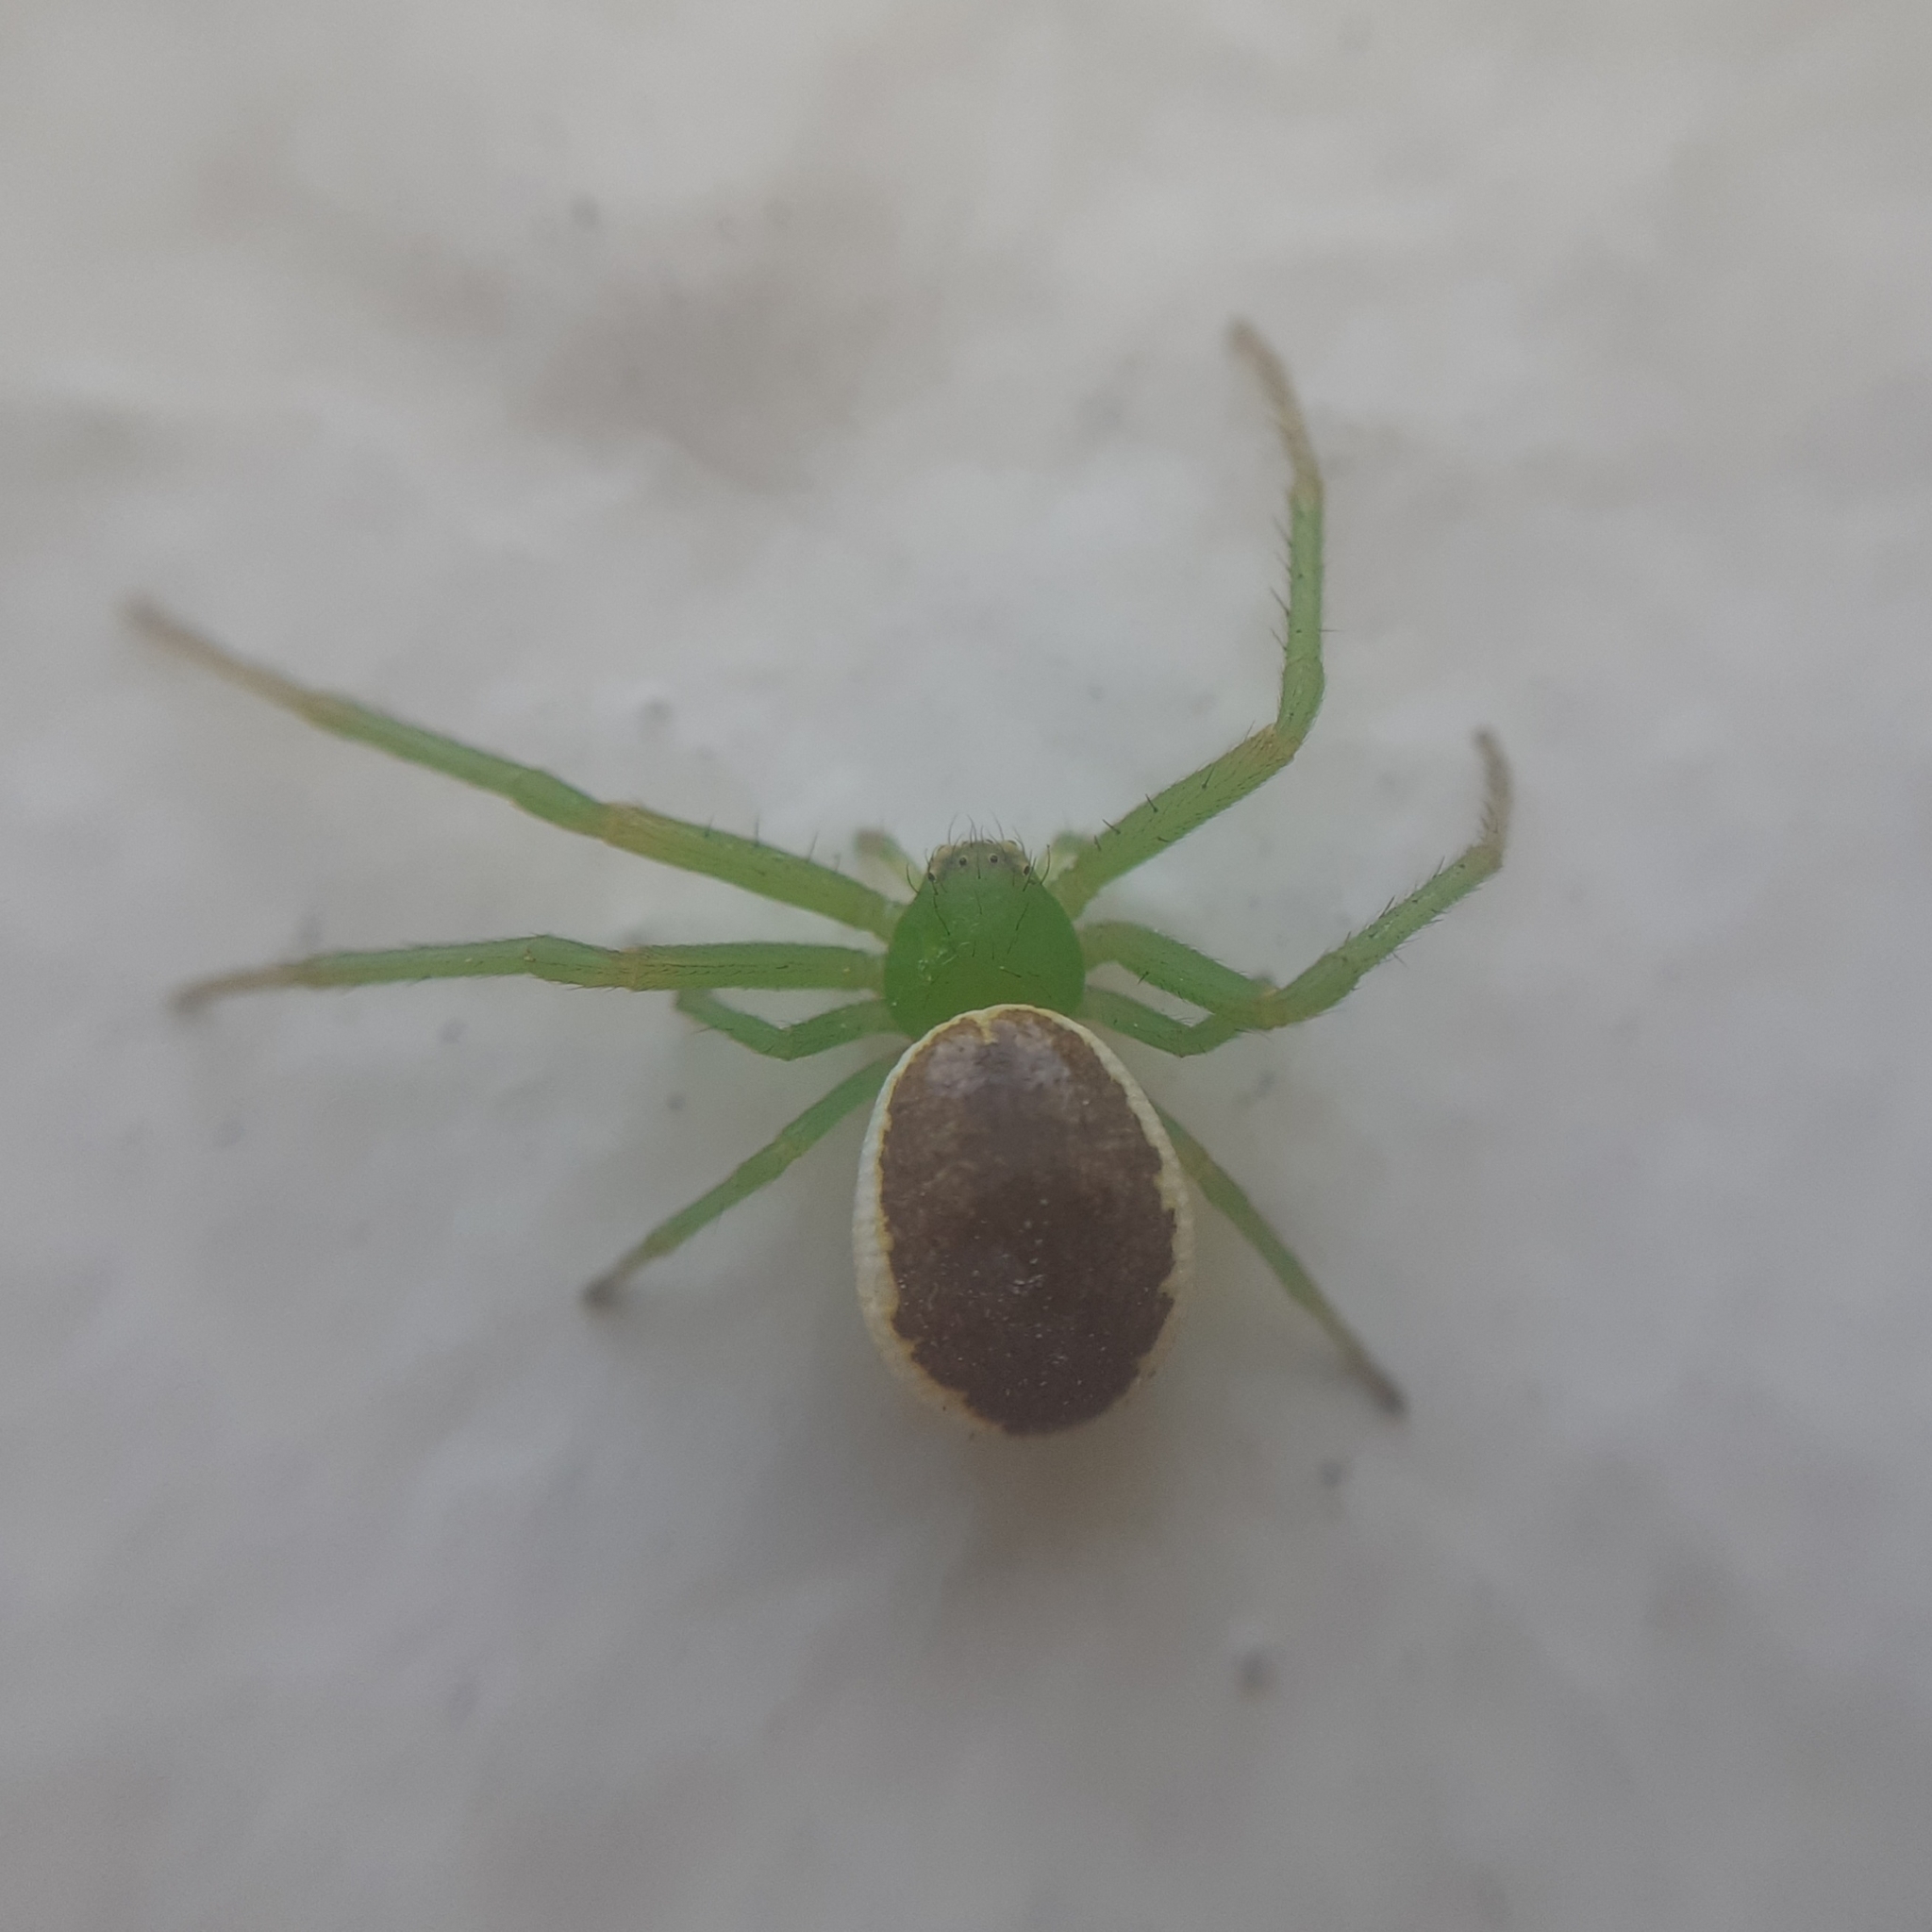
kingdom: Animalia
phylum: Arthropoda
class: Arachnida
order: Araneae
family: Thomisidae
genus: Diaea
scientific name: Diaea dorsata
